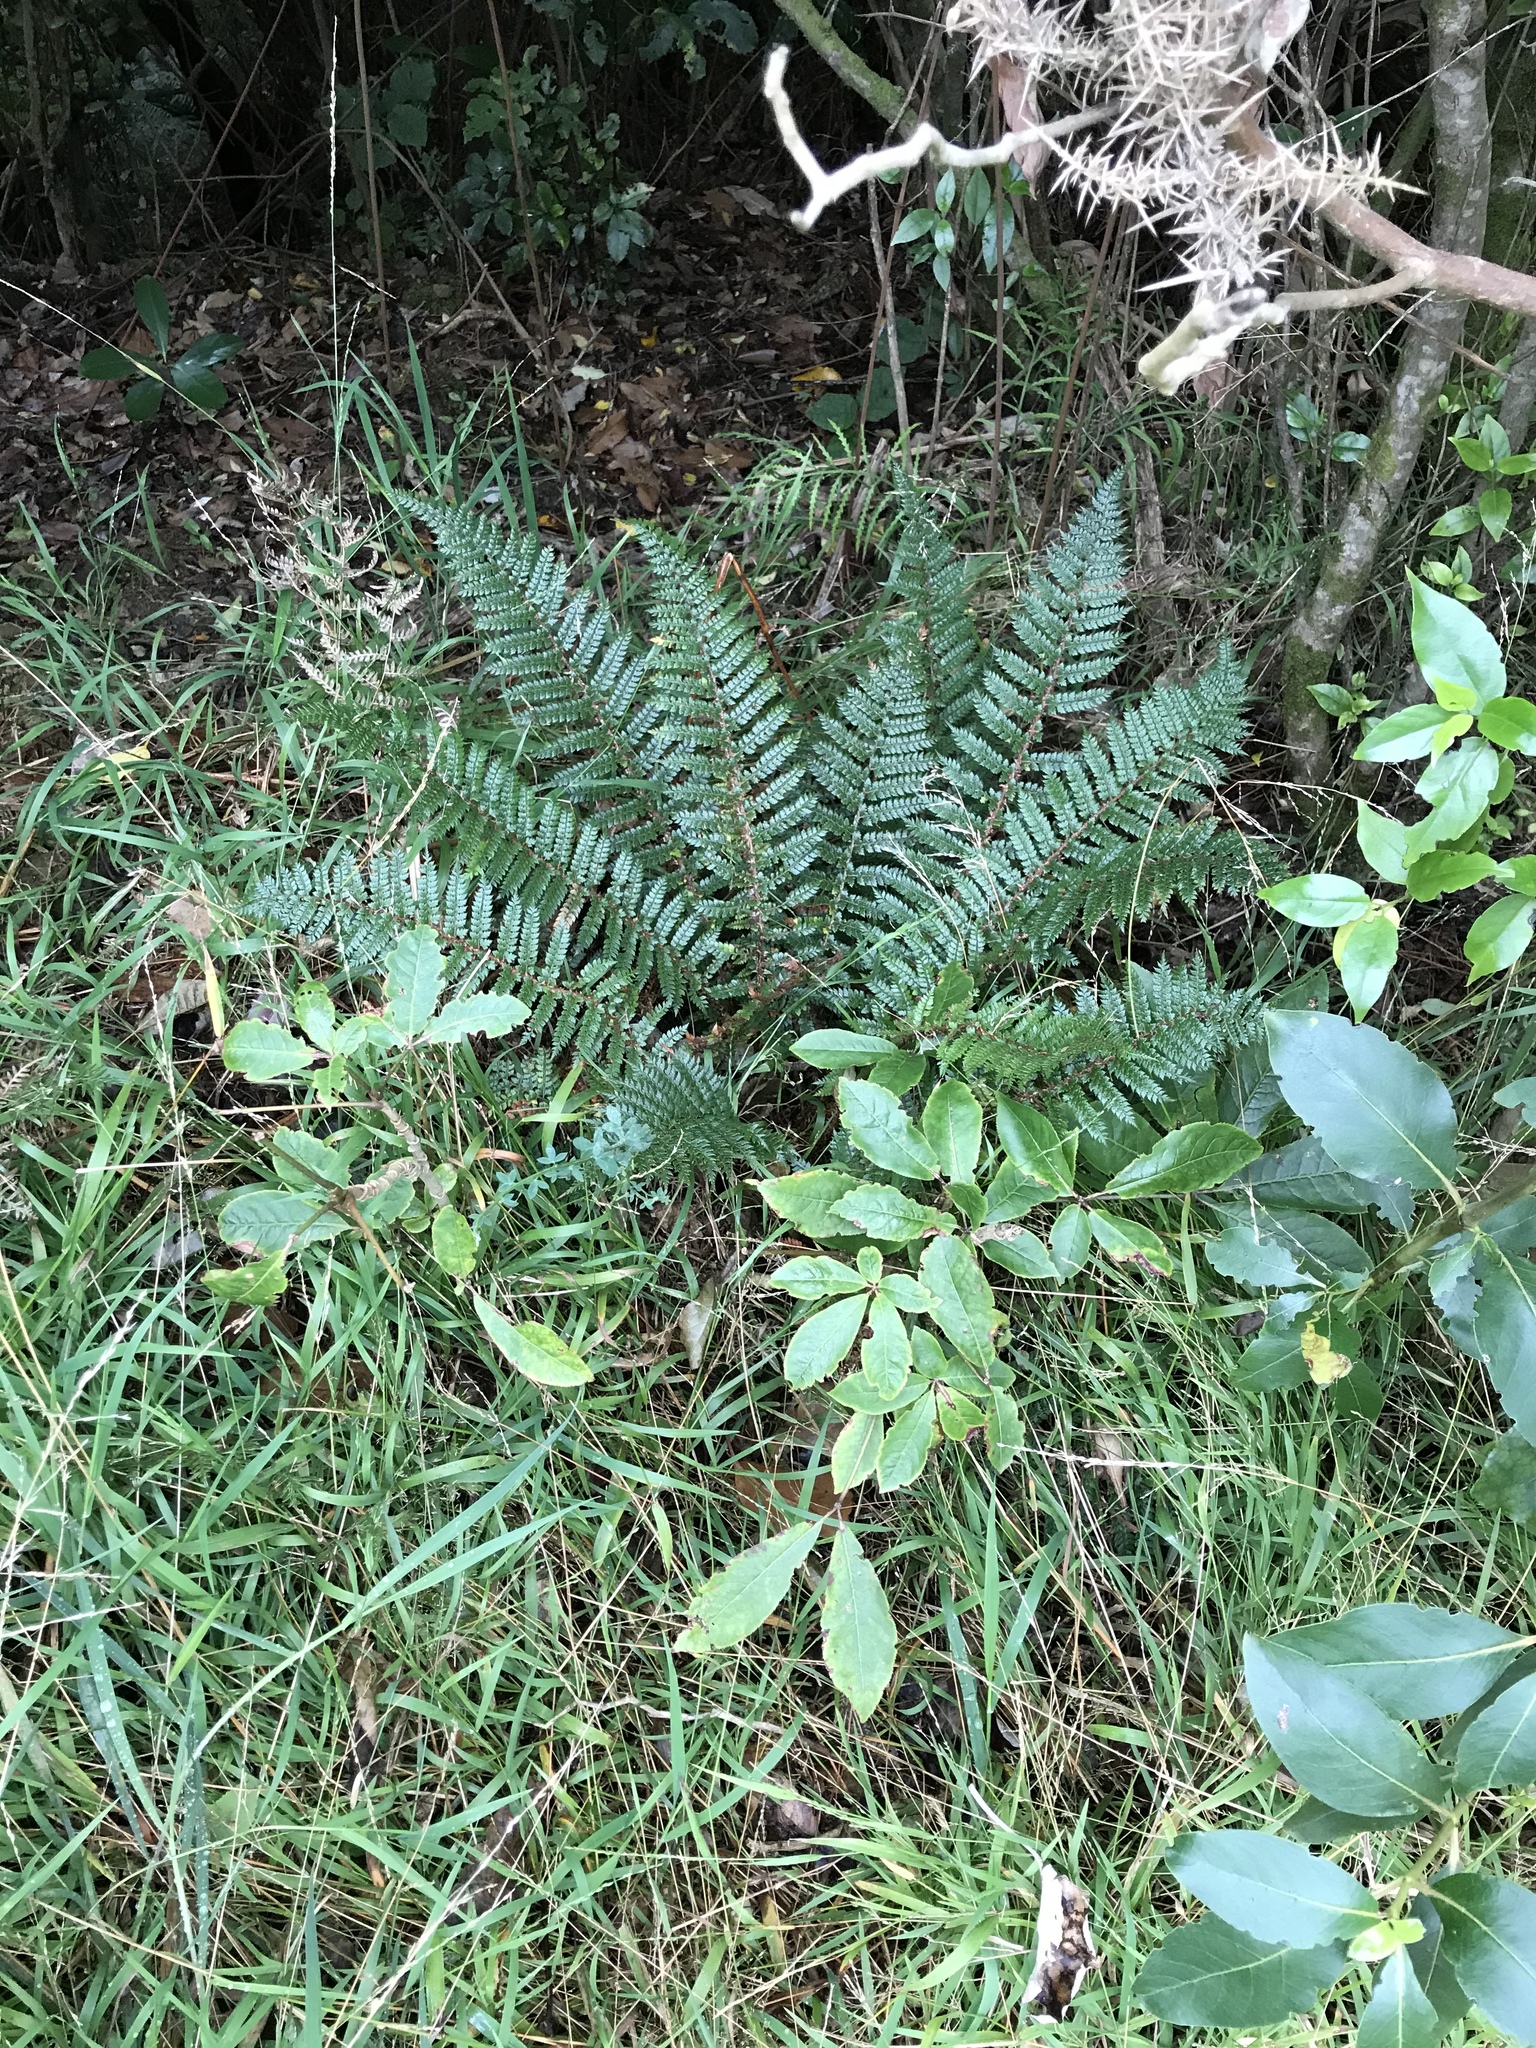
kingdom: Plantae
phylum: Tracheophyta
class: Polypodiopsida
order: Polypodiales
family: Dryopteridaceae
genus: Polystichum
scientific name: Polystichum vestitum
